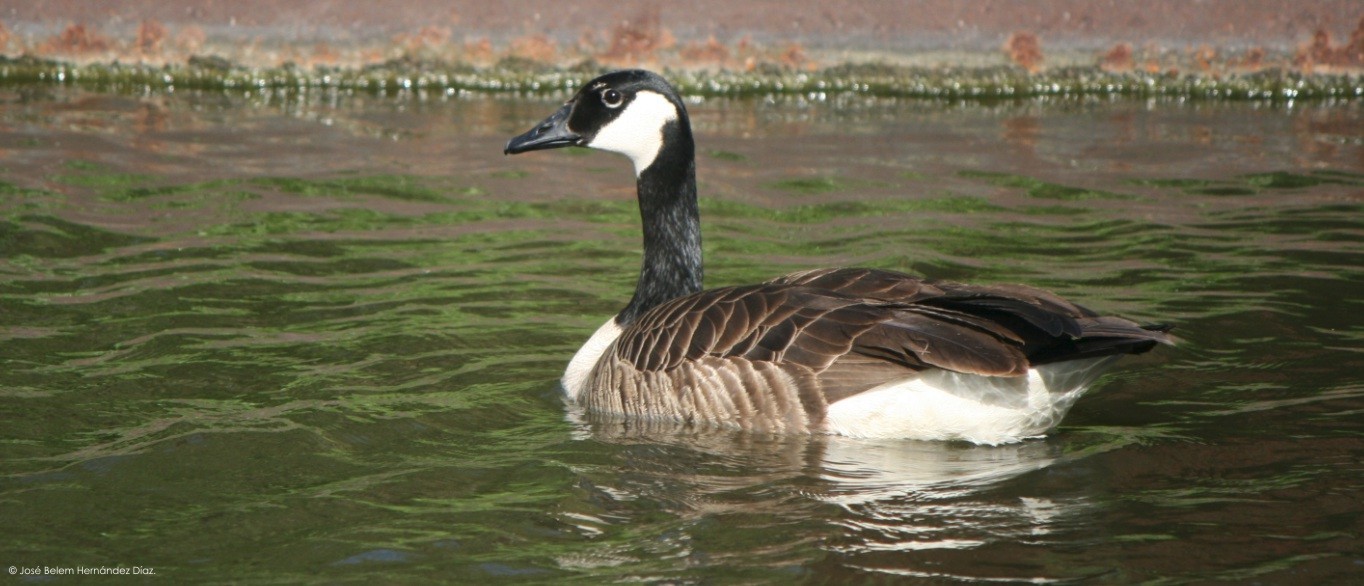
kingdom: Animalia
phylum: Chordata
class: Aves
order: Anseriformes
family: Anatidae
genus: Branta
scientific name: Branta canadensis
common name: Canada goose
